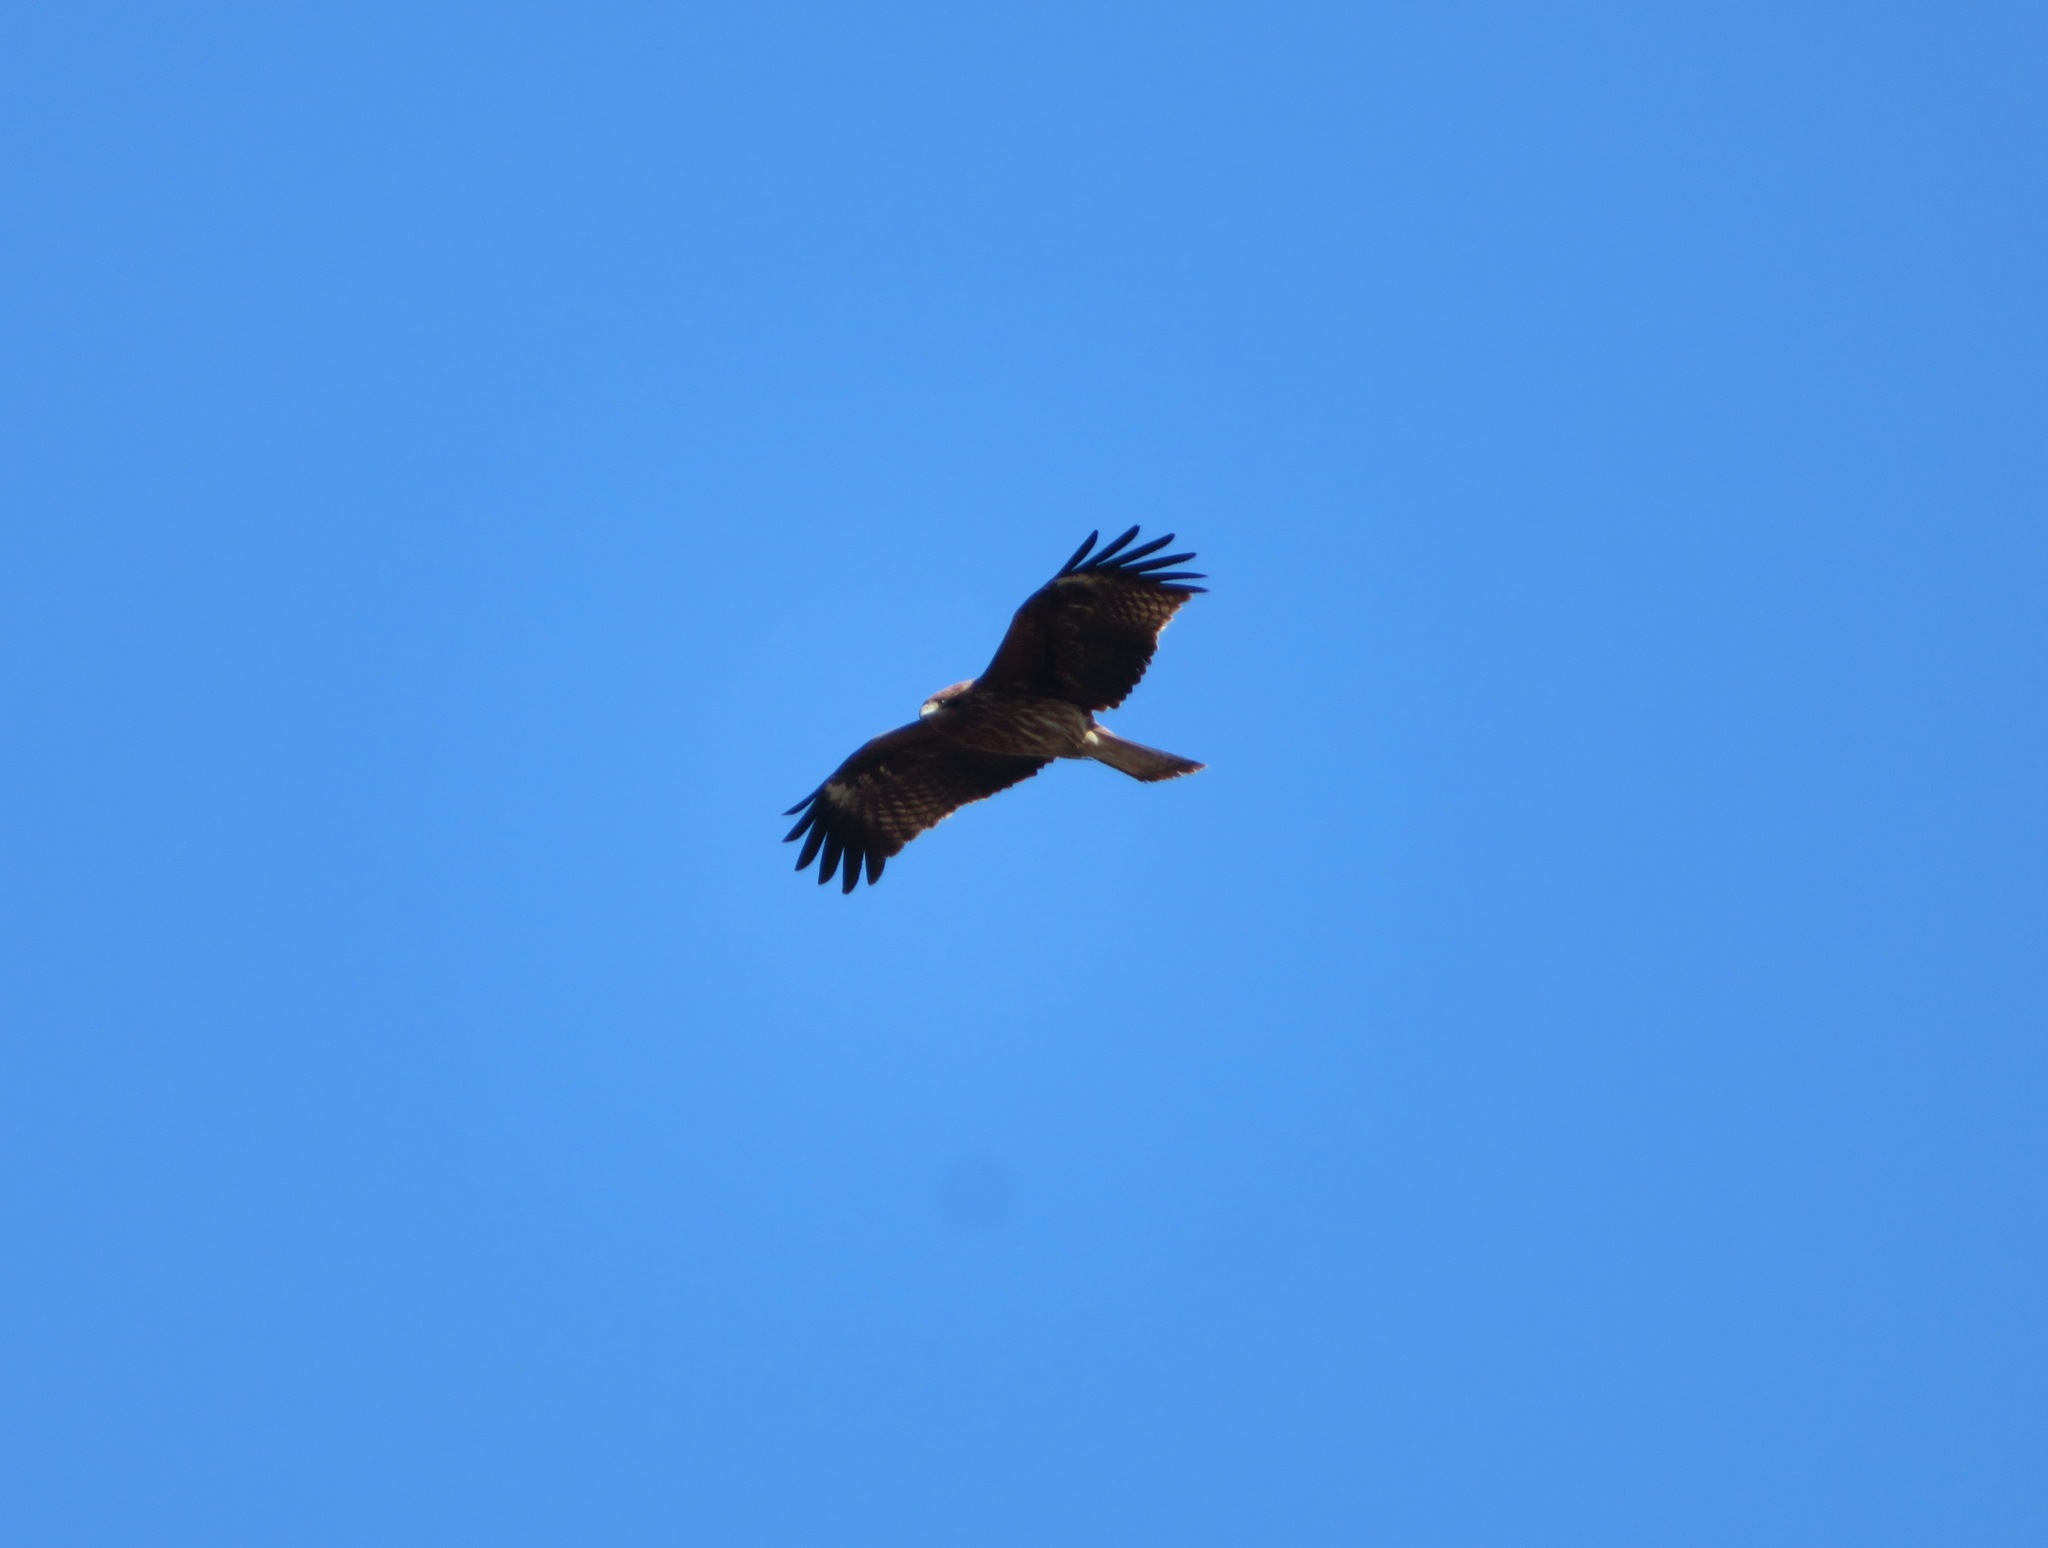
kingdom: Animalia
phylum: Chordata
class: Aves
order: Accipitriformes
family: Accipitridae
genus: Milvus
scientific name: Milvus migrans
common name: Black kite
